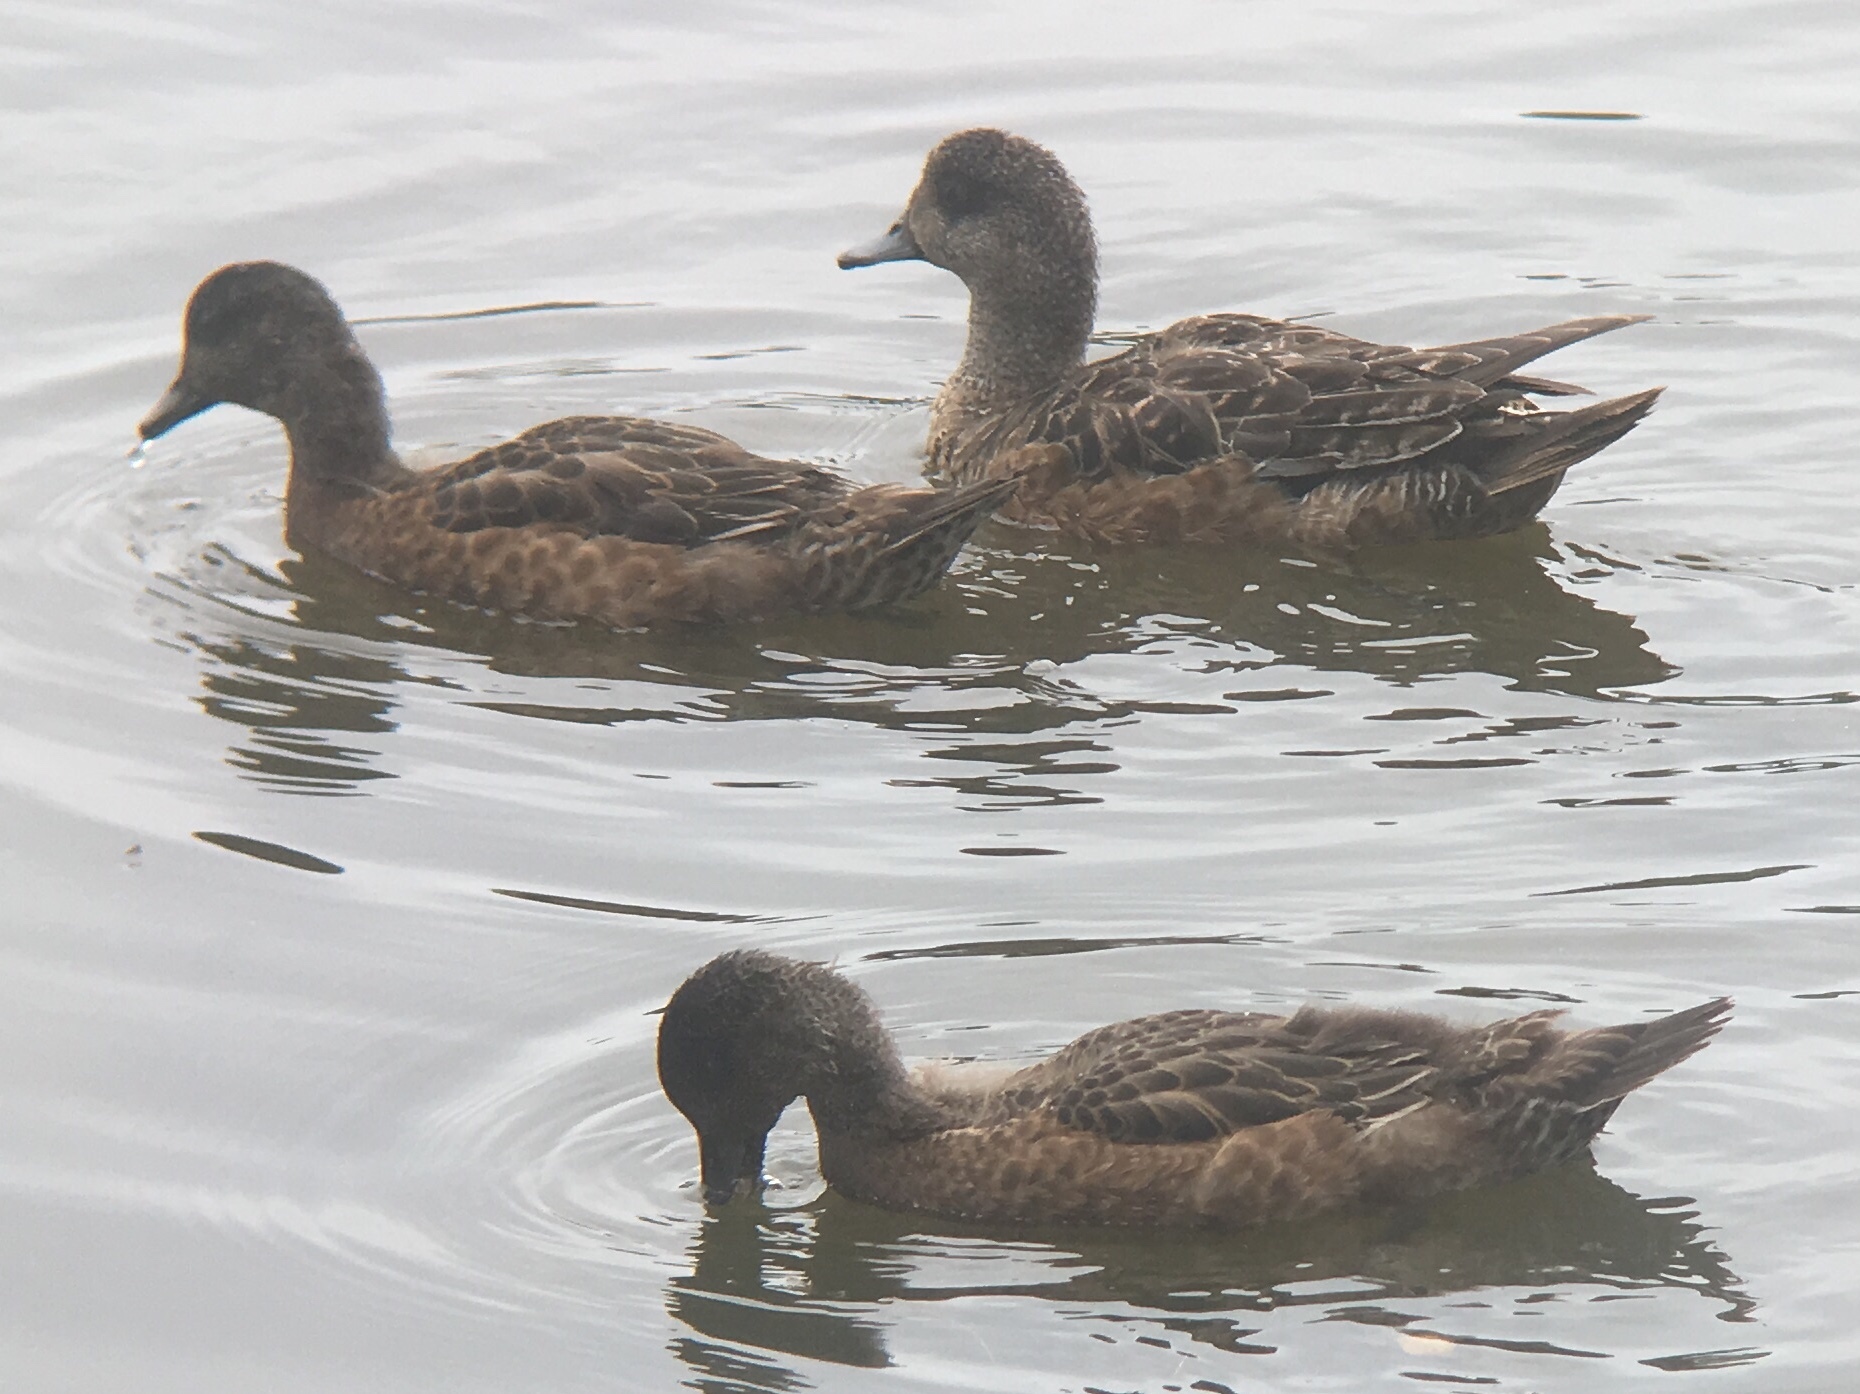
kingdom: Animalia
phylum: Chordata
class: Aves
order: Anseriformes
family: Anatidae
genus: Mareca
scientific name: Mareca americana
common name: American wigeon
